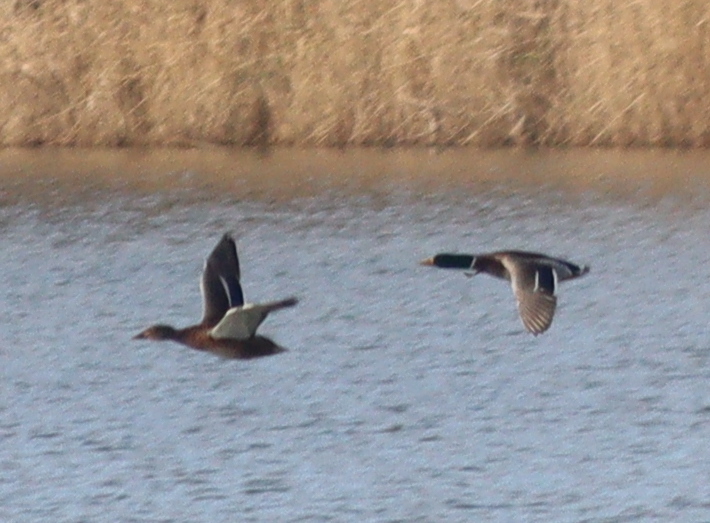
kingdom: Animalia
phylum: Chordata
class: Aves
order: Anseriformes
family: Anatidae
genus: Anas
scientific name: Anas platyrhynchos
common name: Mallard
